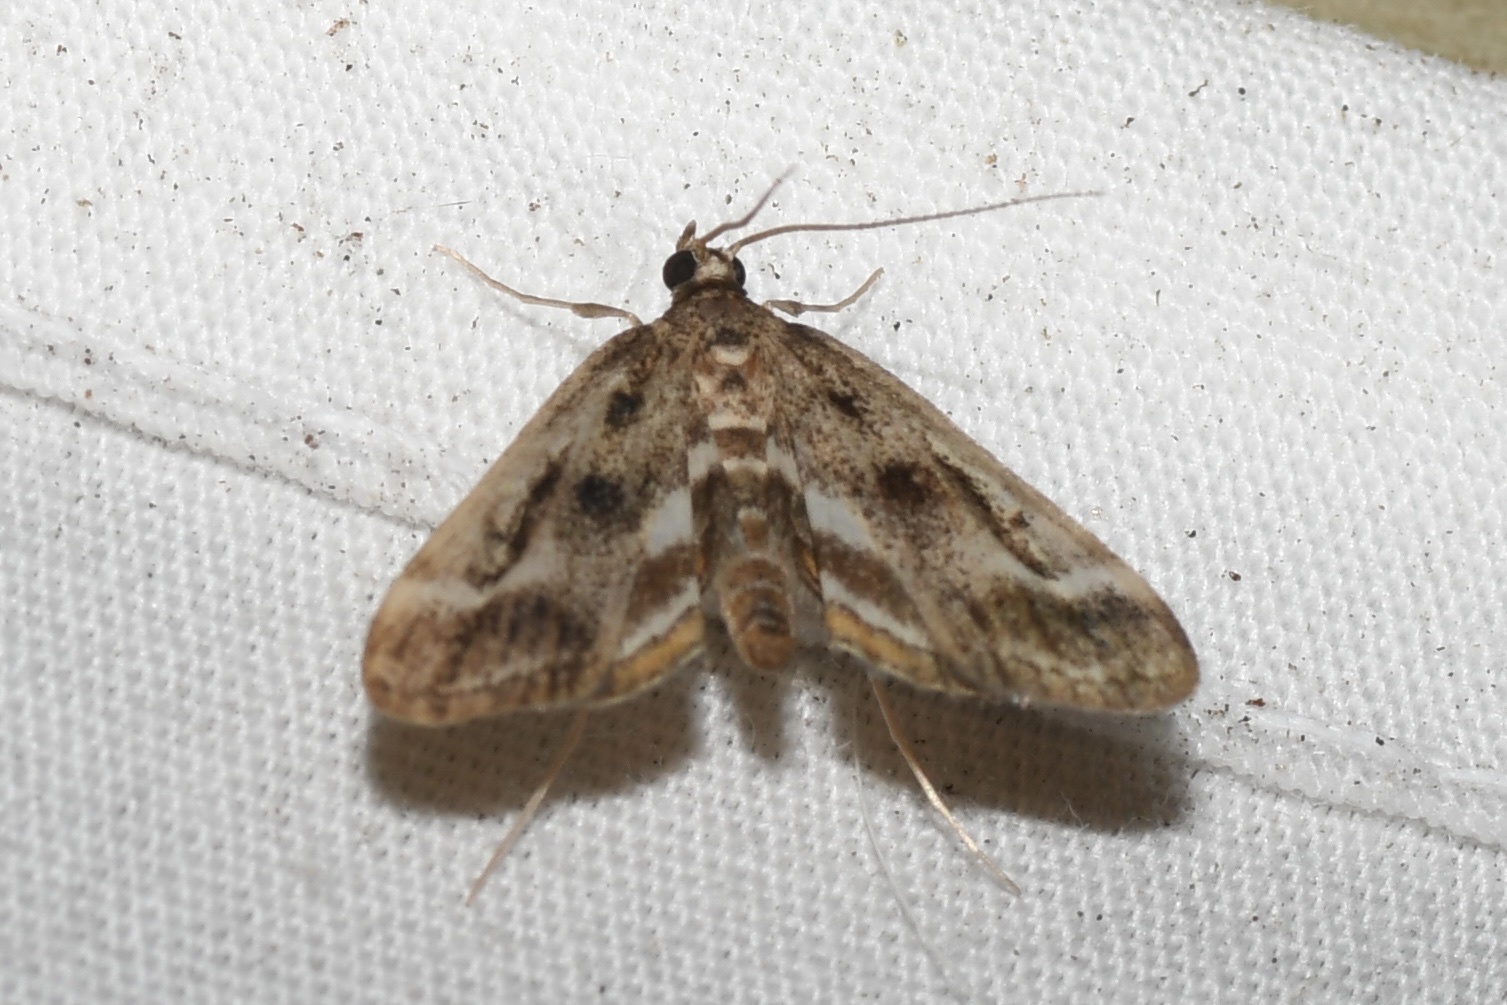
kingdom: Animalia
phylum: Arthropoda
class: Insecta
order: Lepidoptera
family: Crambidae
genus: Parapoynx
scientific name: Parapoynx obscuralis
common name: American china-mark
